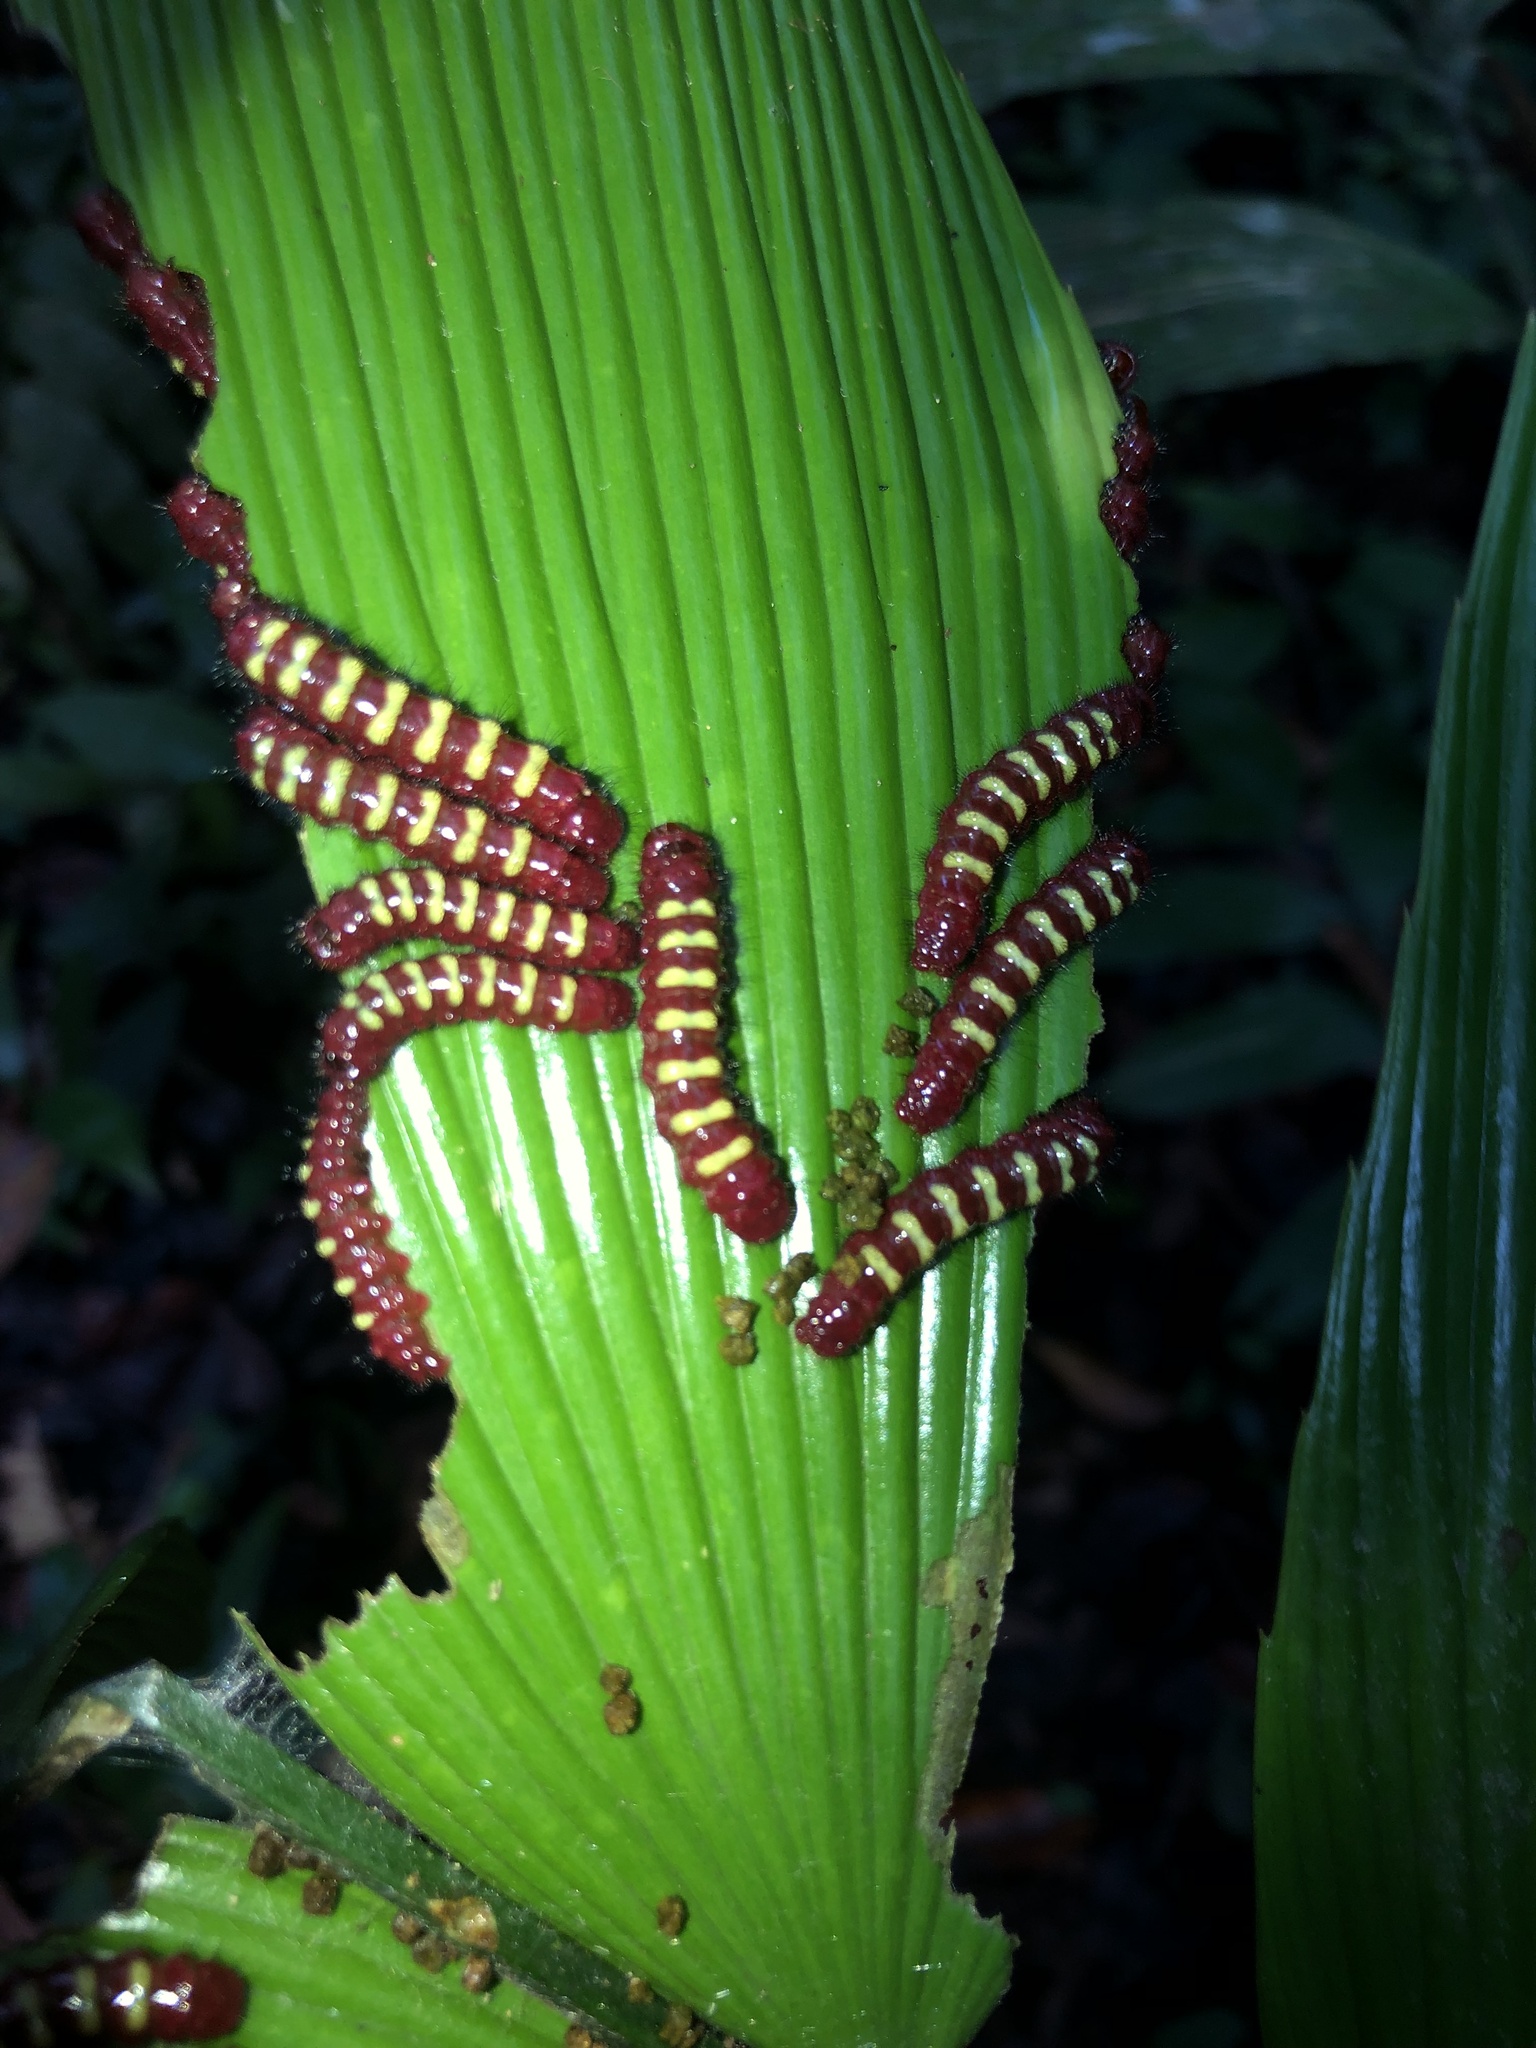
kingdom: Animalia
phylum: Arthropoda
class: Insecta
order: Lepidoptera
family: Lycaenidae
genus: Eumaeus
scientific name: Eumaeus godartii
